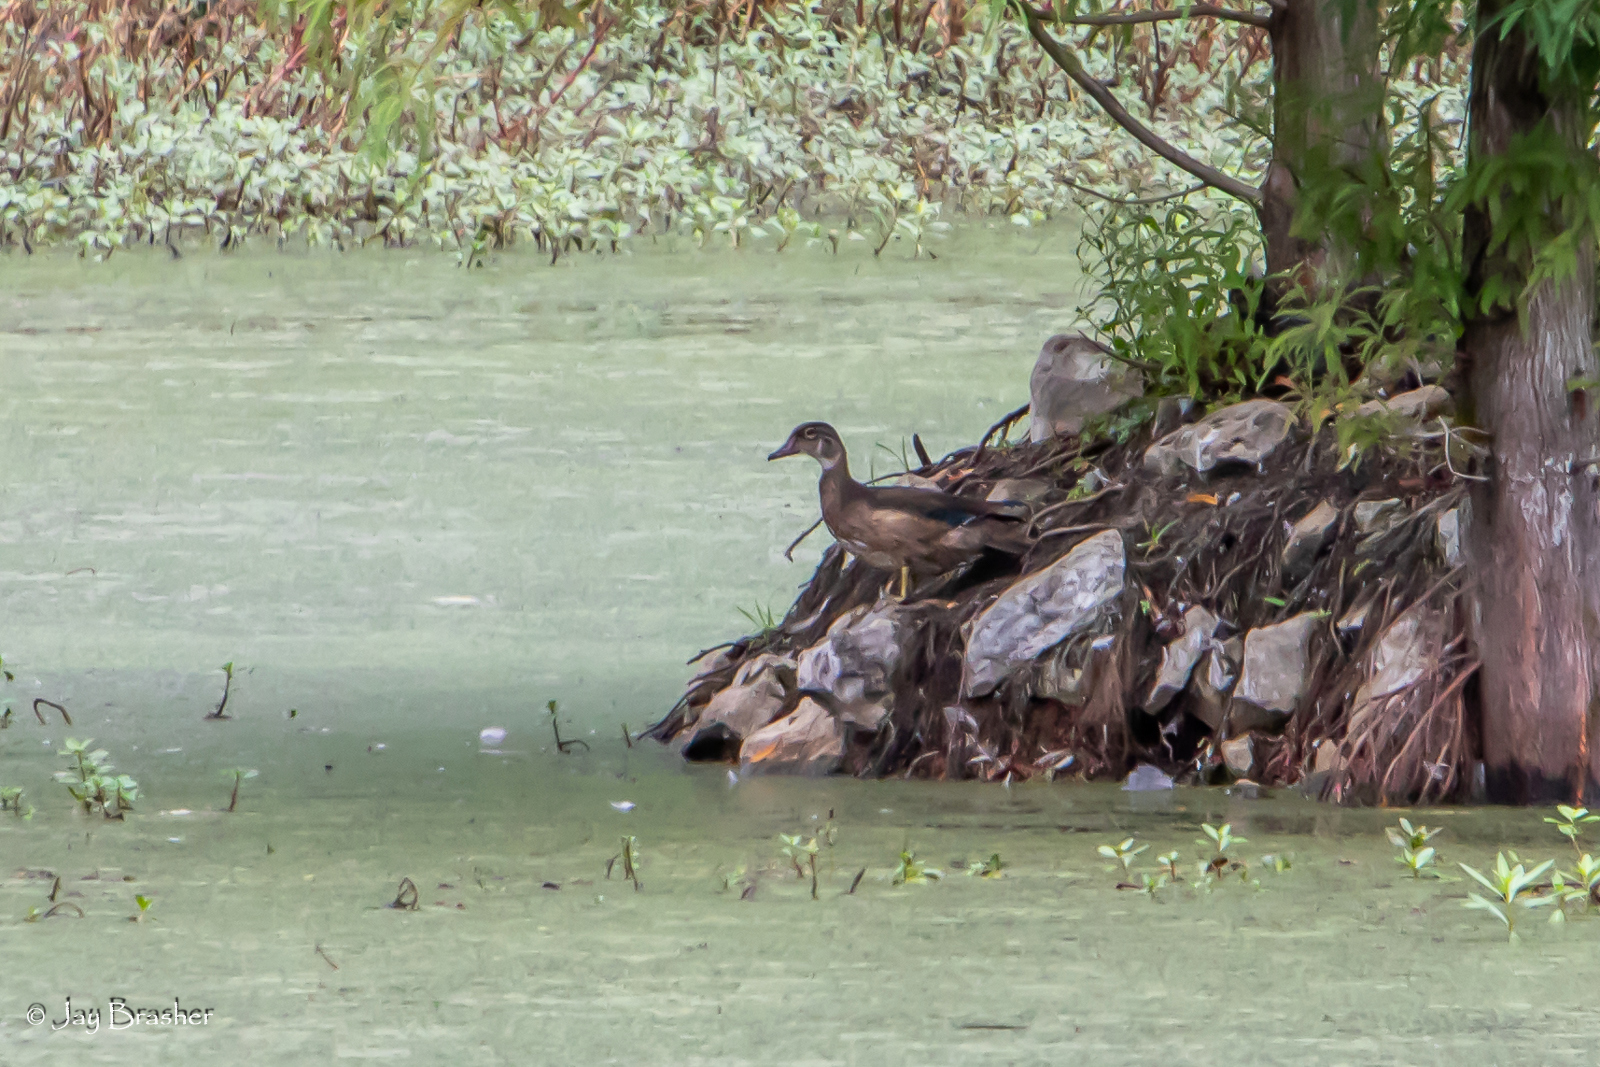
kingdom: Animalia
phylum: Chordata
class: Aves
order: Anseriformes
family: Anatidae
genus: Aix
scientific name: Aix sponsa
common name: Wood duck
